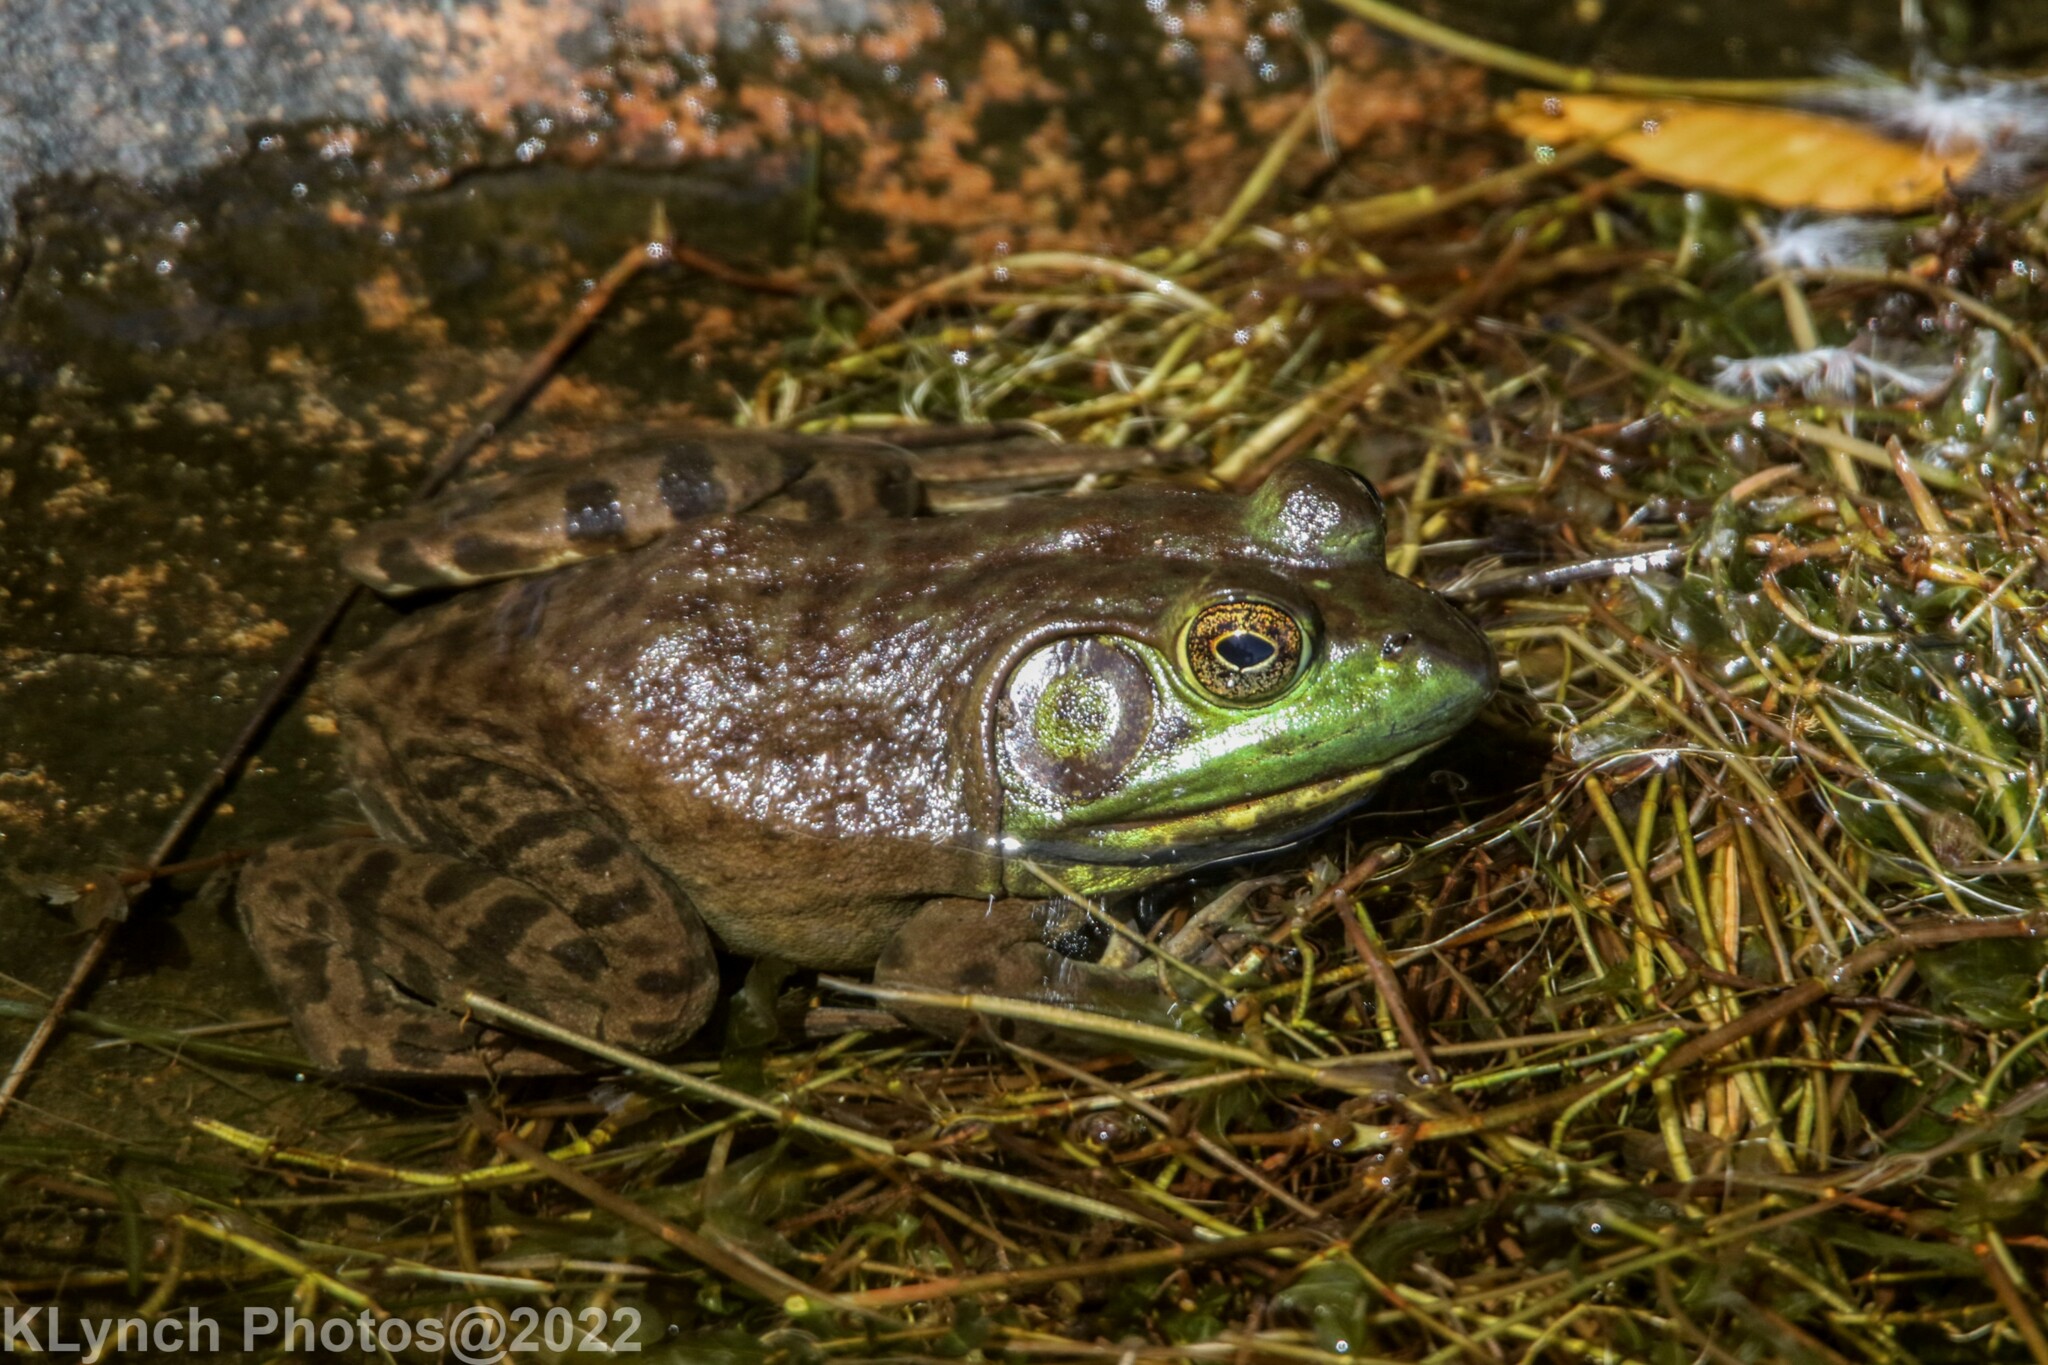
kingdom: Animalia
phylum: Chordata
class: Amphibia
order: Anura
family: Ranidae
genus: Lithobates
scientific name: Lithobates catesbeianus
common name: American bullfrog
